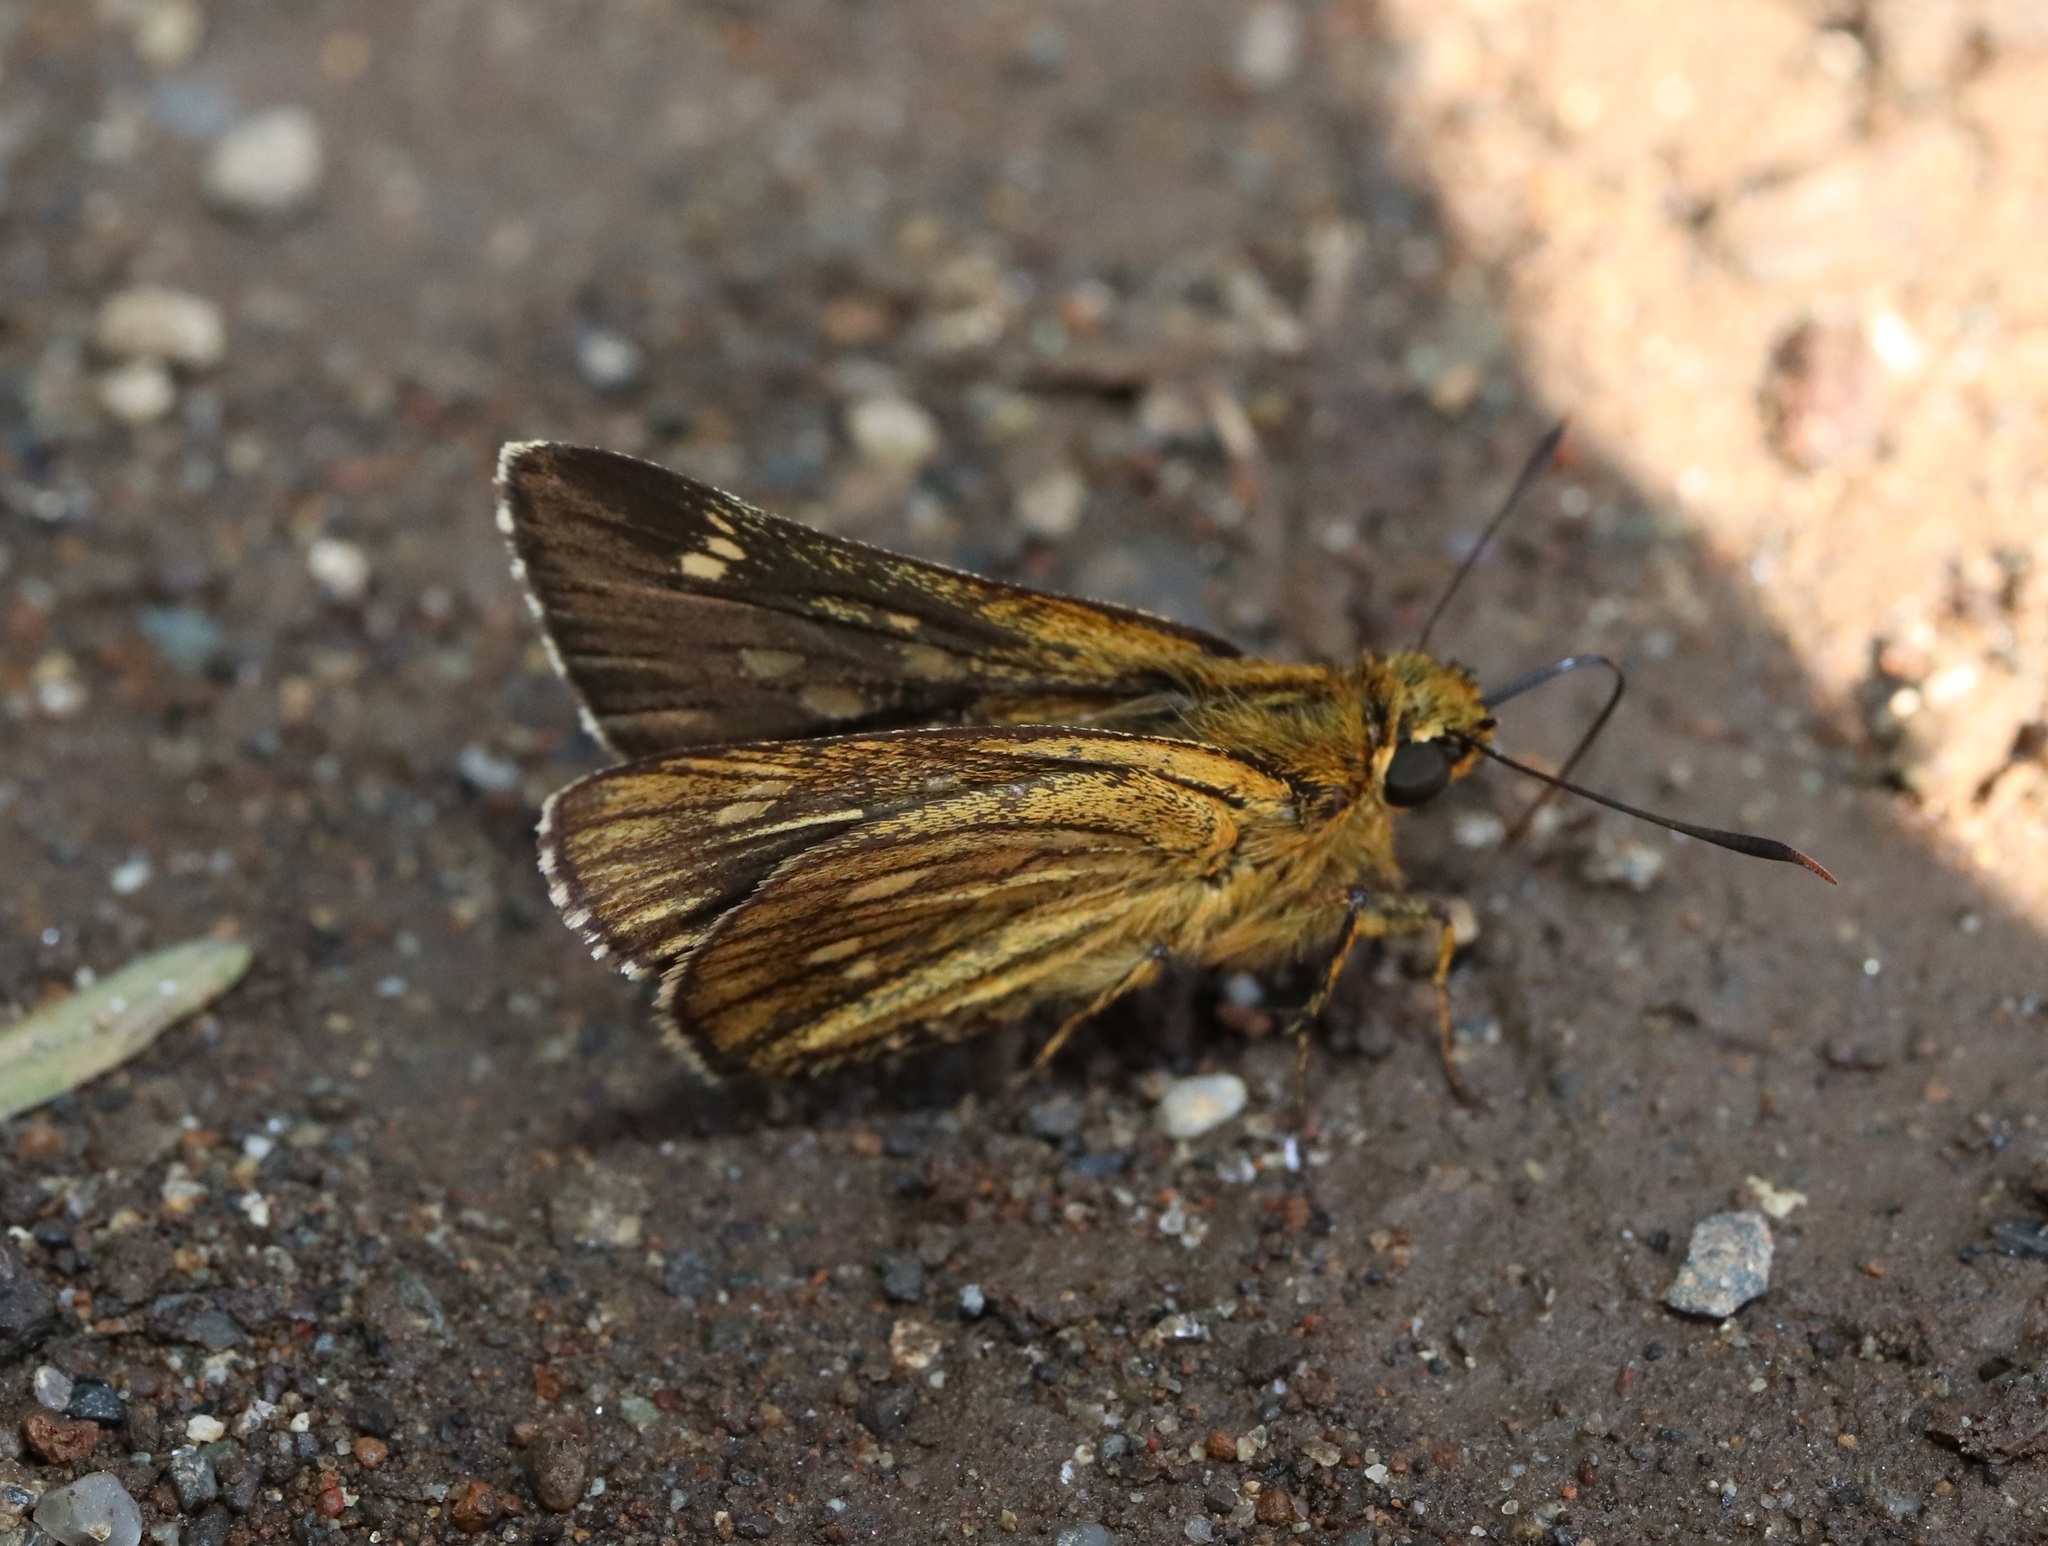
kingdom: Animalia
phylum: Arthropoda
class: Insecta
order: Lepidoptera
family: Hesperiidae
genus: Thoressa
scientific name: Thoressa varia
